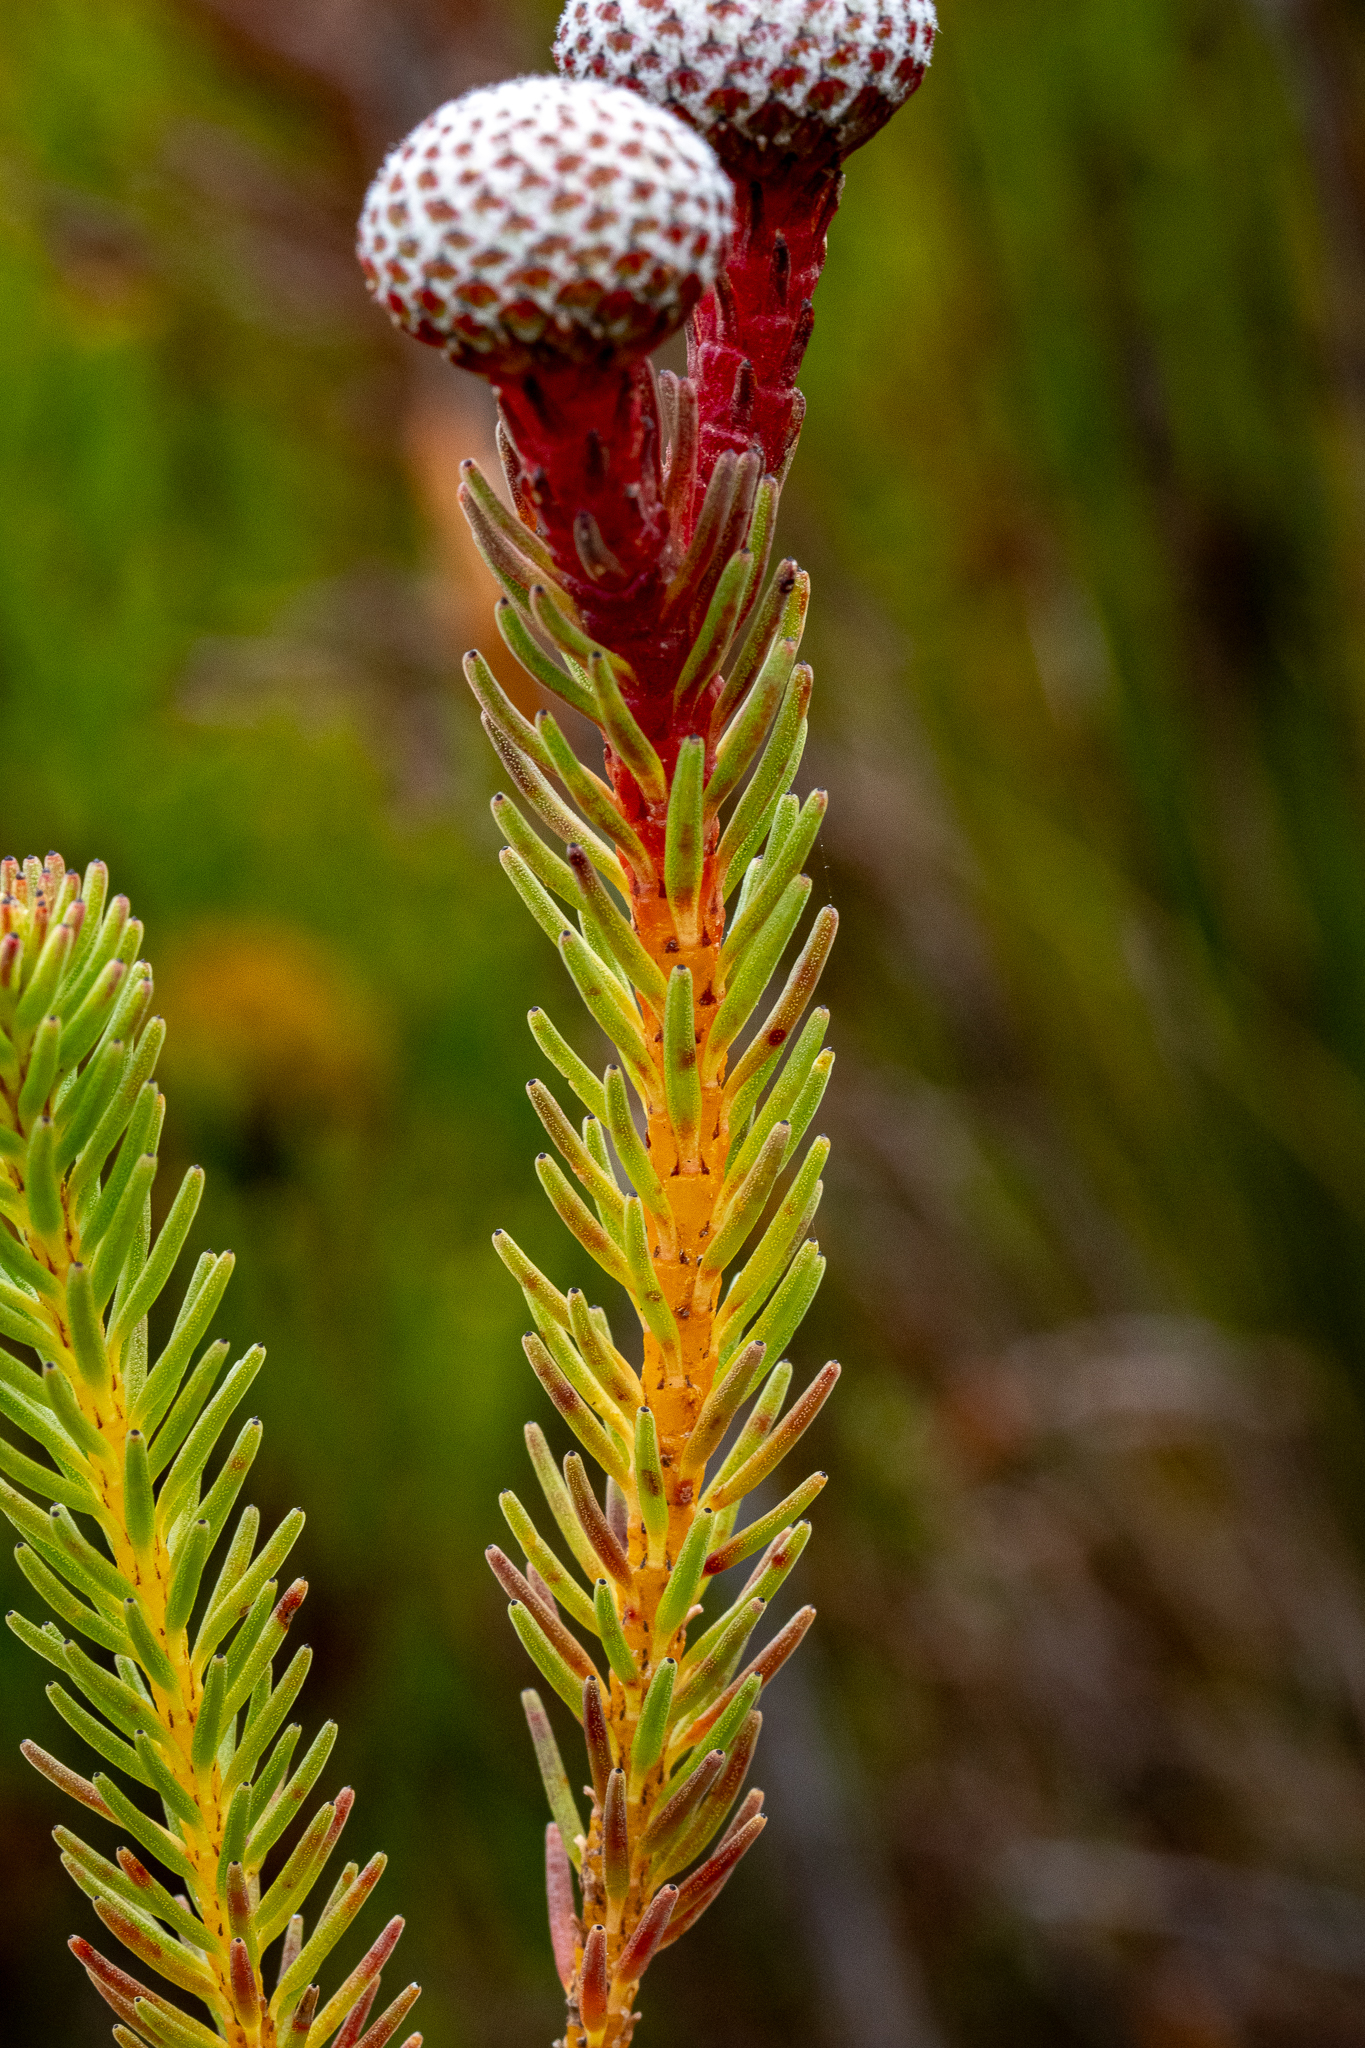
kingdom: Plantae
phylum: Tracheophyta
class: Magnoliopsida
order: Bruniales
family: Bruniaceae
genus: Berzelia
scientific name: Berzelia stokoei
